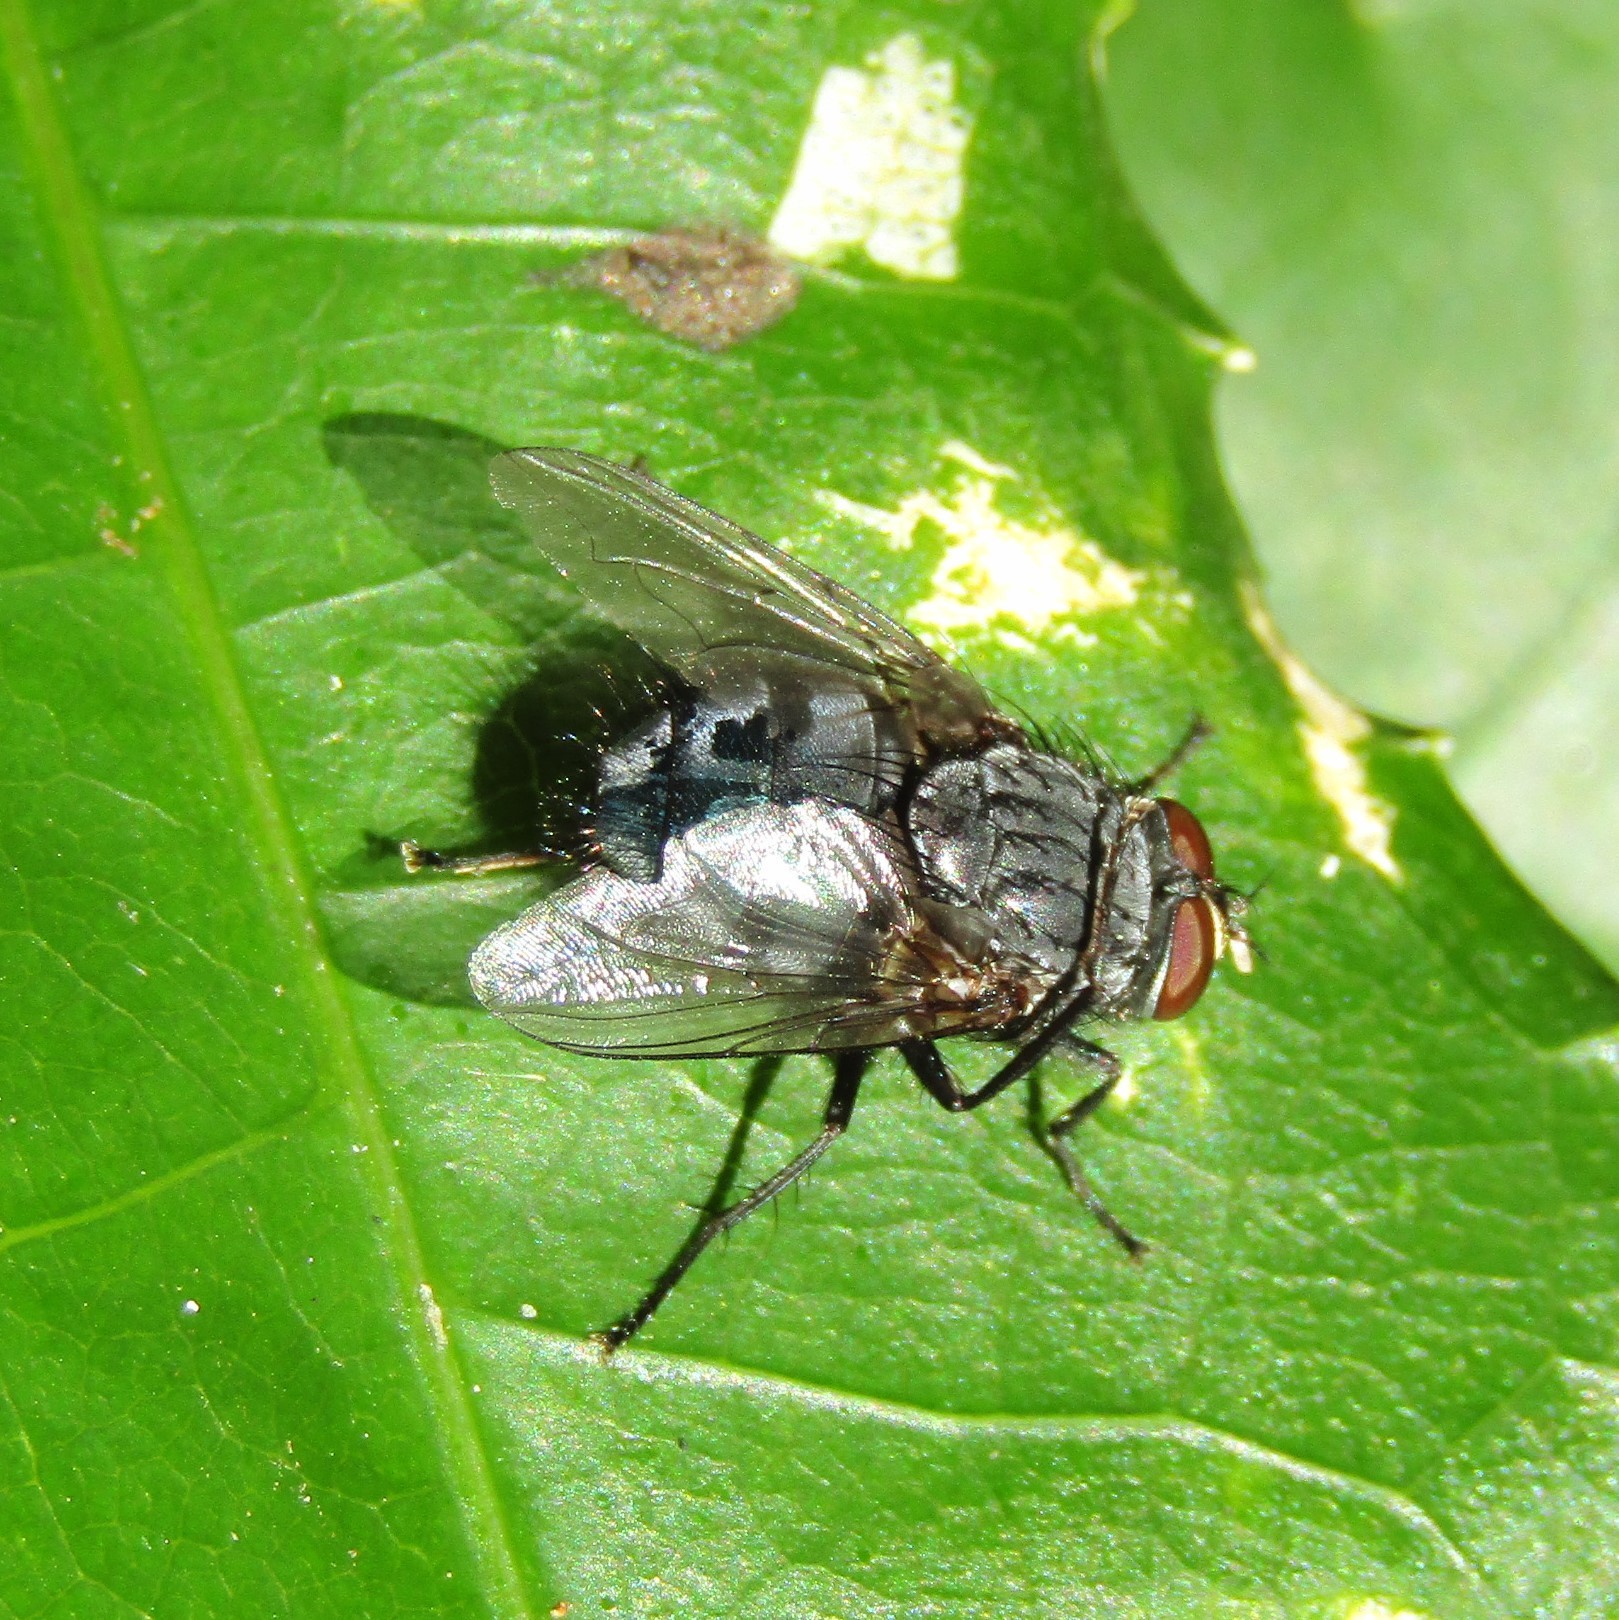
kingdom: Animalia
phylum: Arthropoda
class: Insecta
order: Diptera
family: Calliphoridae
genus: Calliphora
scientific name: Calliphora vicina
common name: Common blow flie
